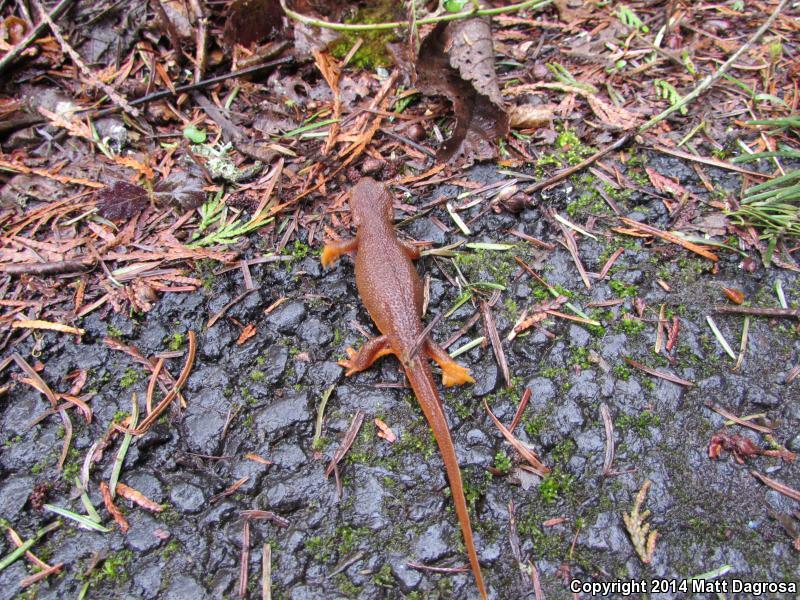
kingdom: Animalia
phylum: Chordata
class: Amphibia
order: Caudata
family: Salamandridae
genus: Taricha
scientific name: Taricha granulosa
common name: Roughskin newt
